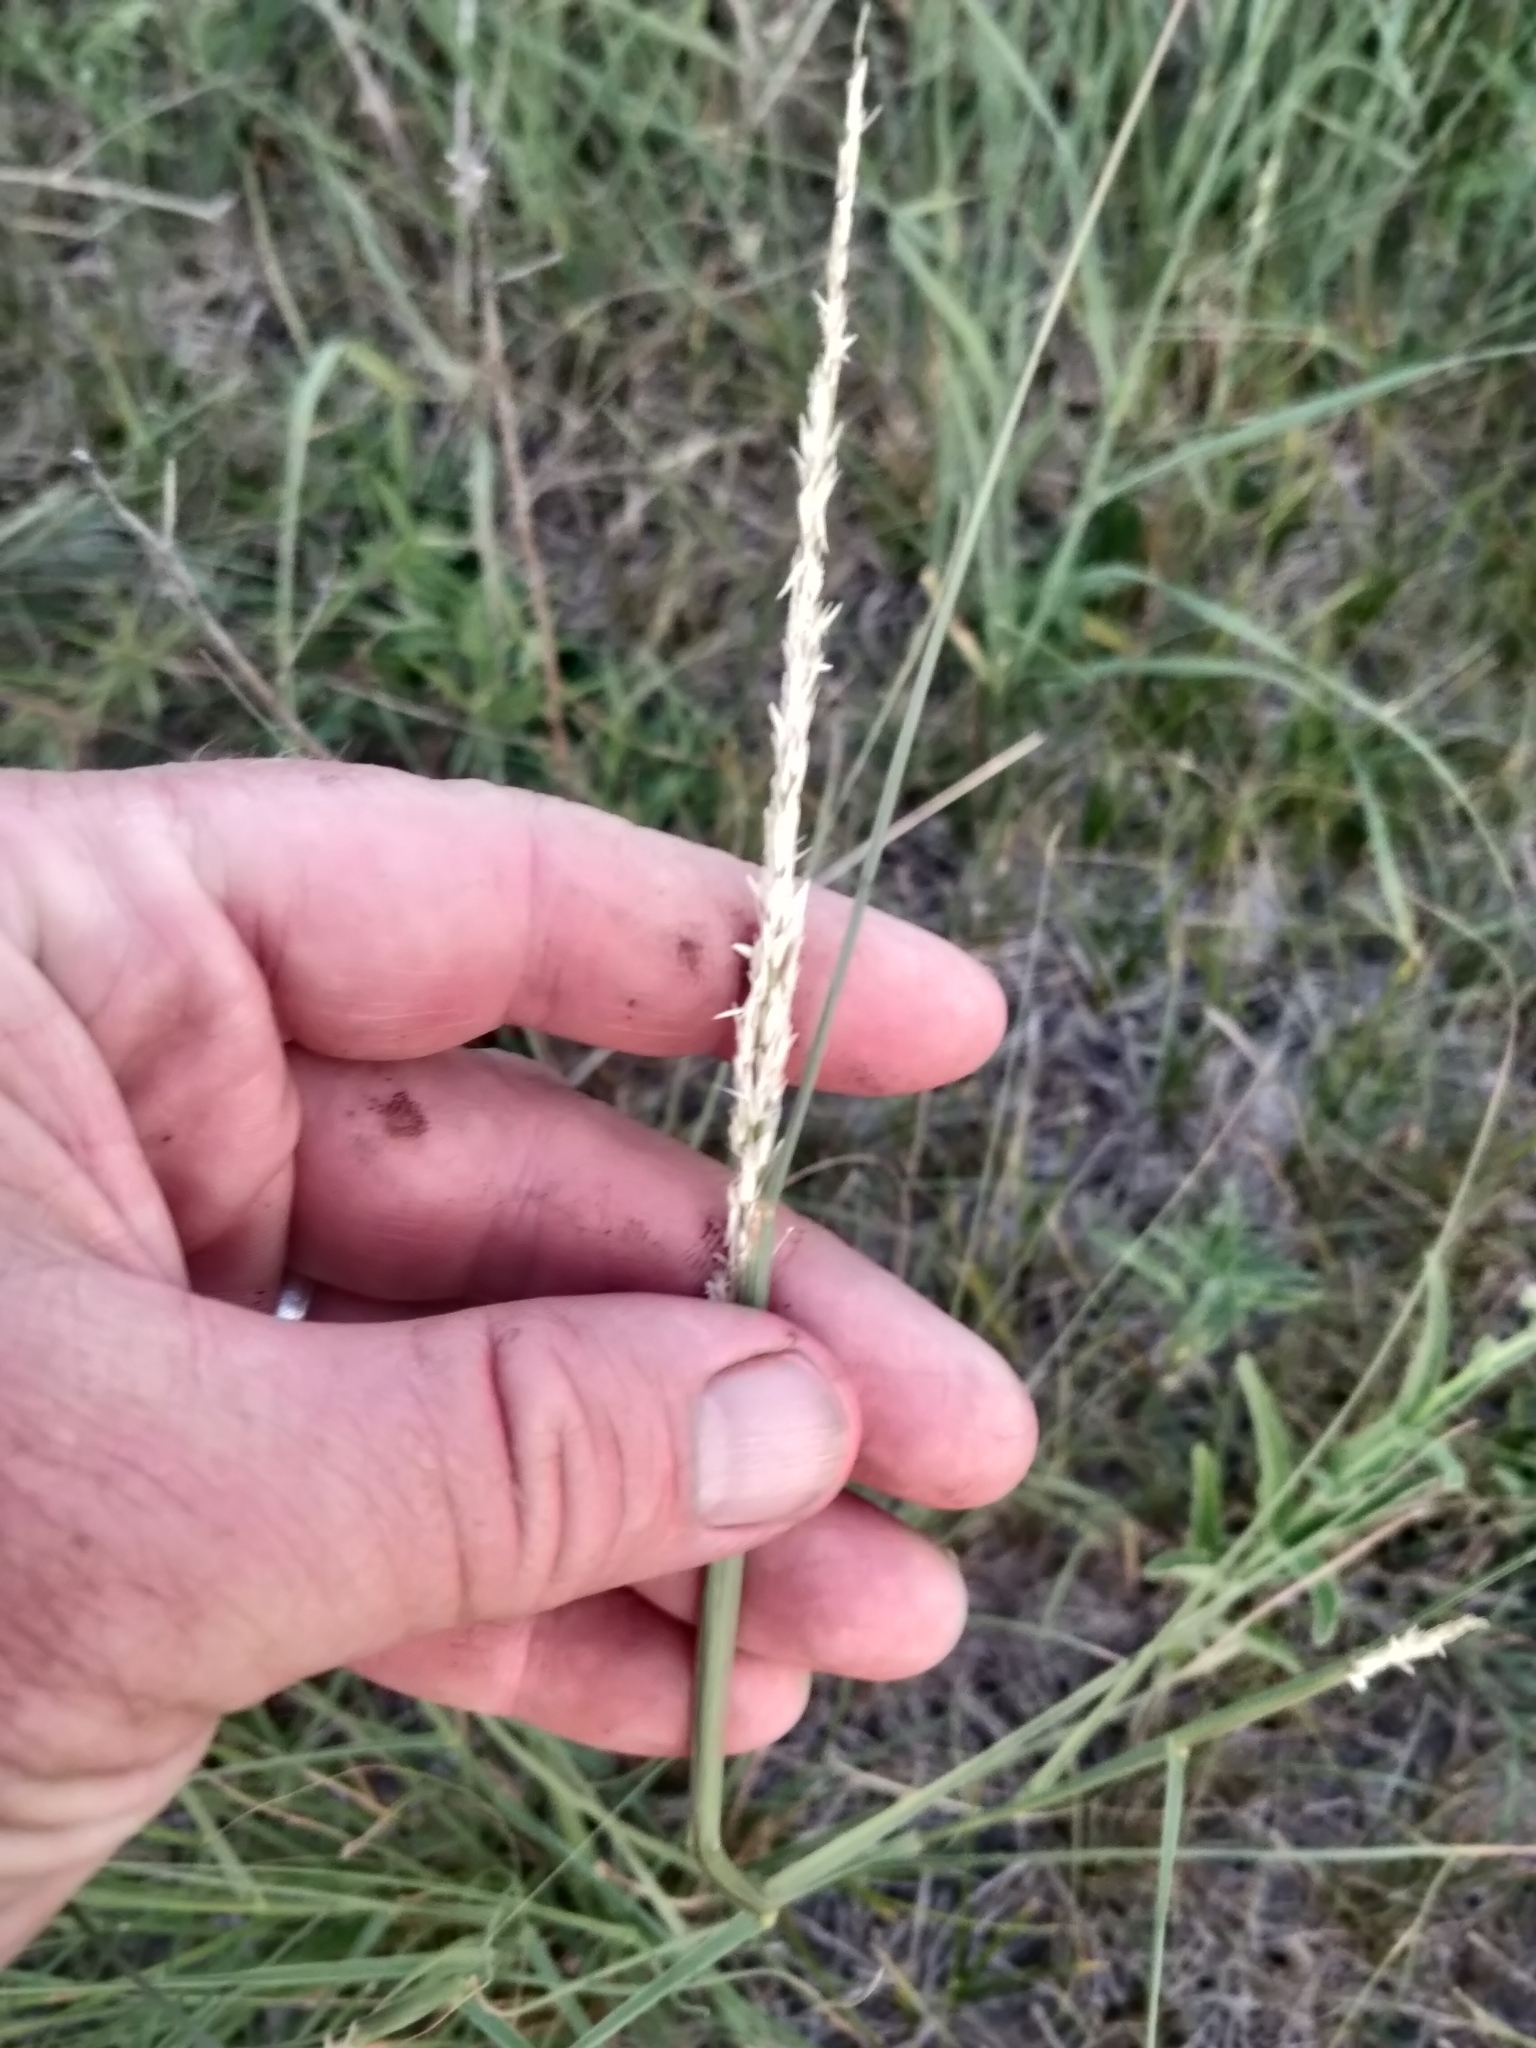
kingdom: Plantae
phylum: Tracheophyta
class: Liliopsida
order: Poales
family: Poaceae
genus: Sporobolus
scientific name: Sporobolus compositus
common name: Rough dropseed
